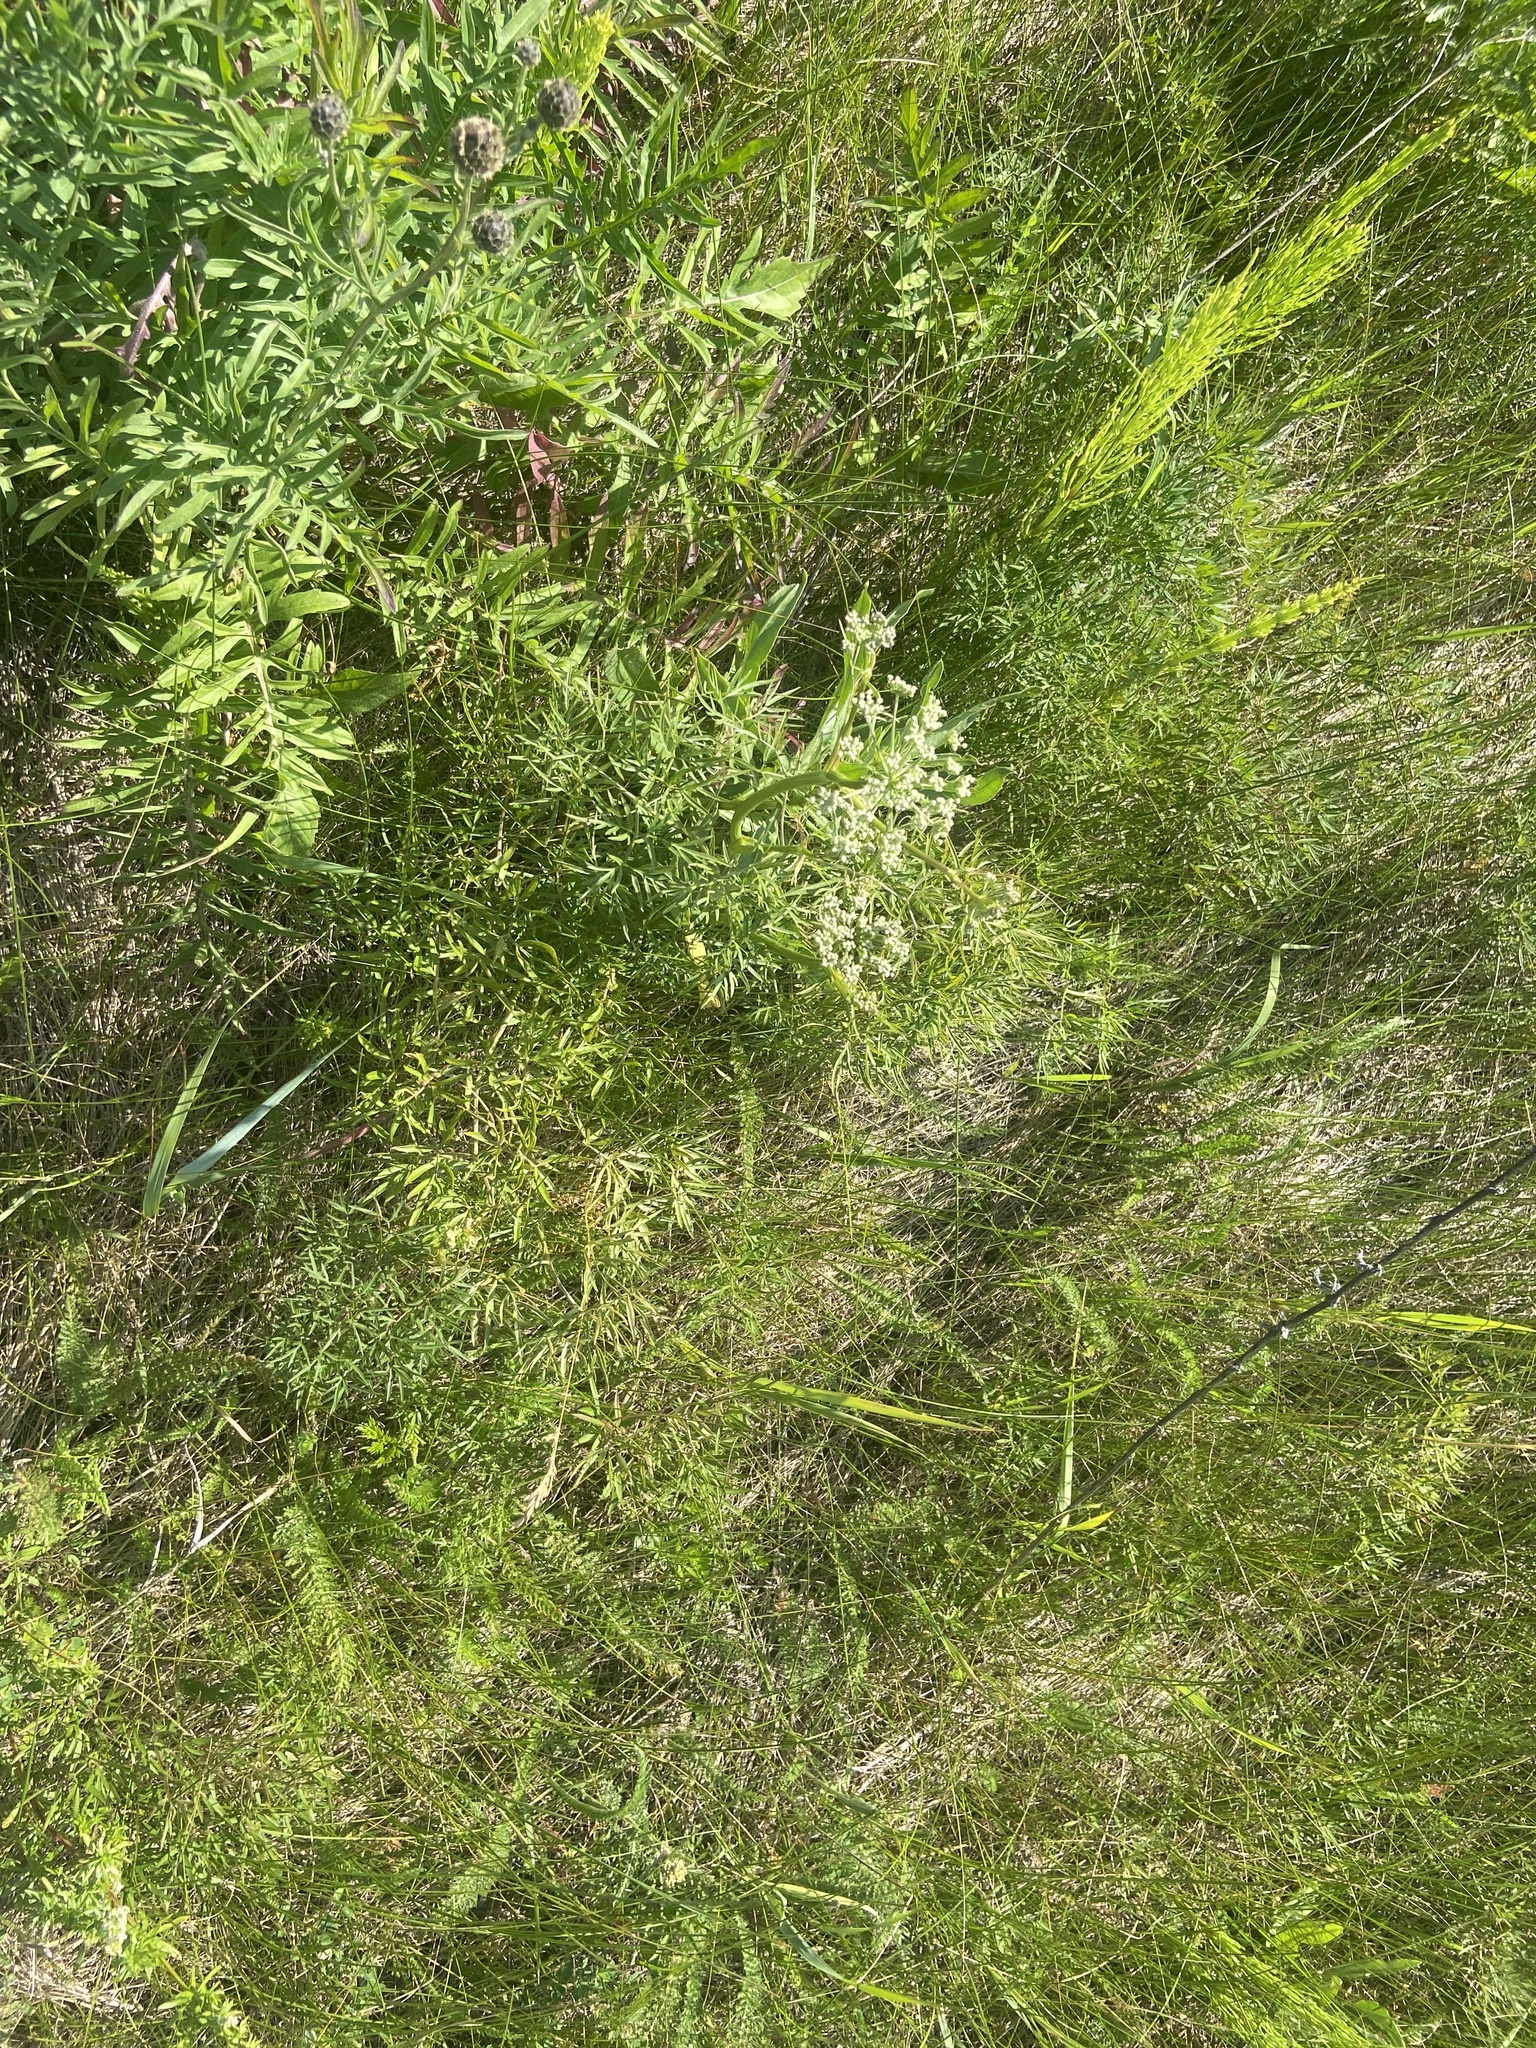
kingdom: Plantae
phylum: Tracheophyta
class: Magnoliopsida
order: Apiales
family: Apiaceae
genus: Cenolophium
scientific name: Cenolophium fischeri
